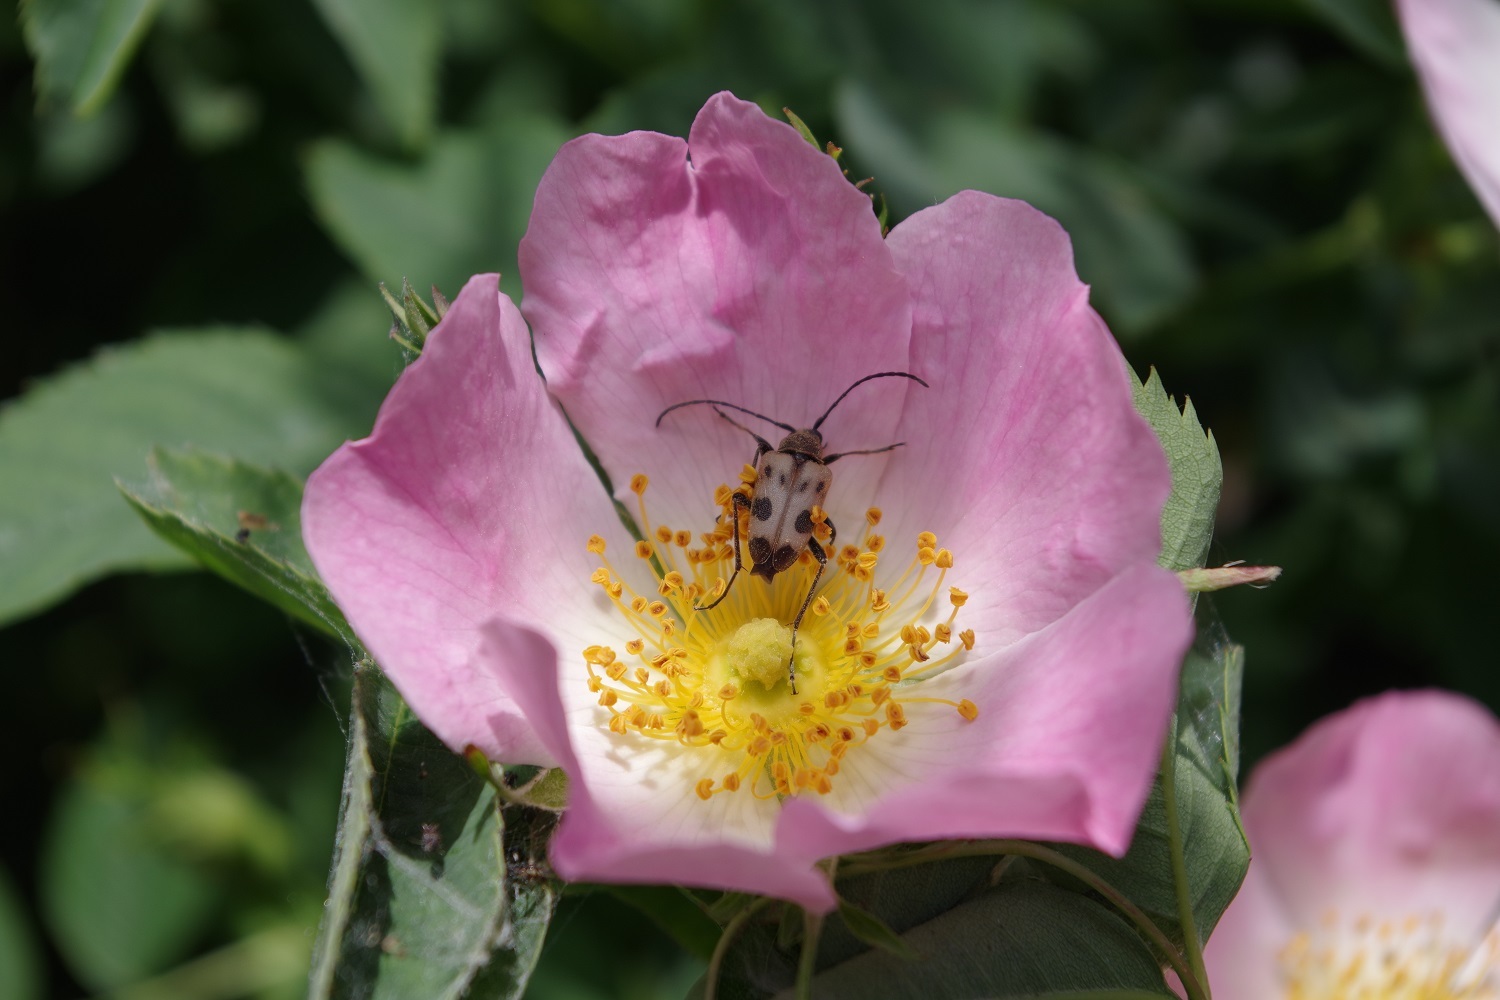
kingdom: Animalia
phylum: Arthropoda
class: Insecta
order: Coleoptera
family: Cerambycidae
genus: Pachytodes
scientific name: Pachytodes cerambyciformis
